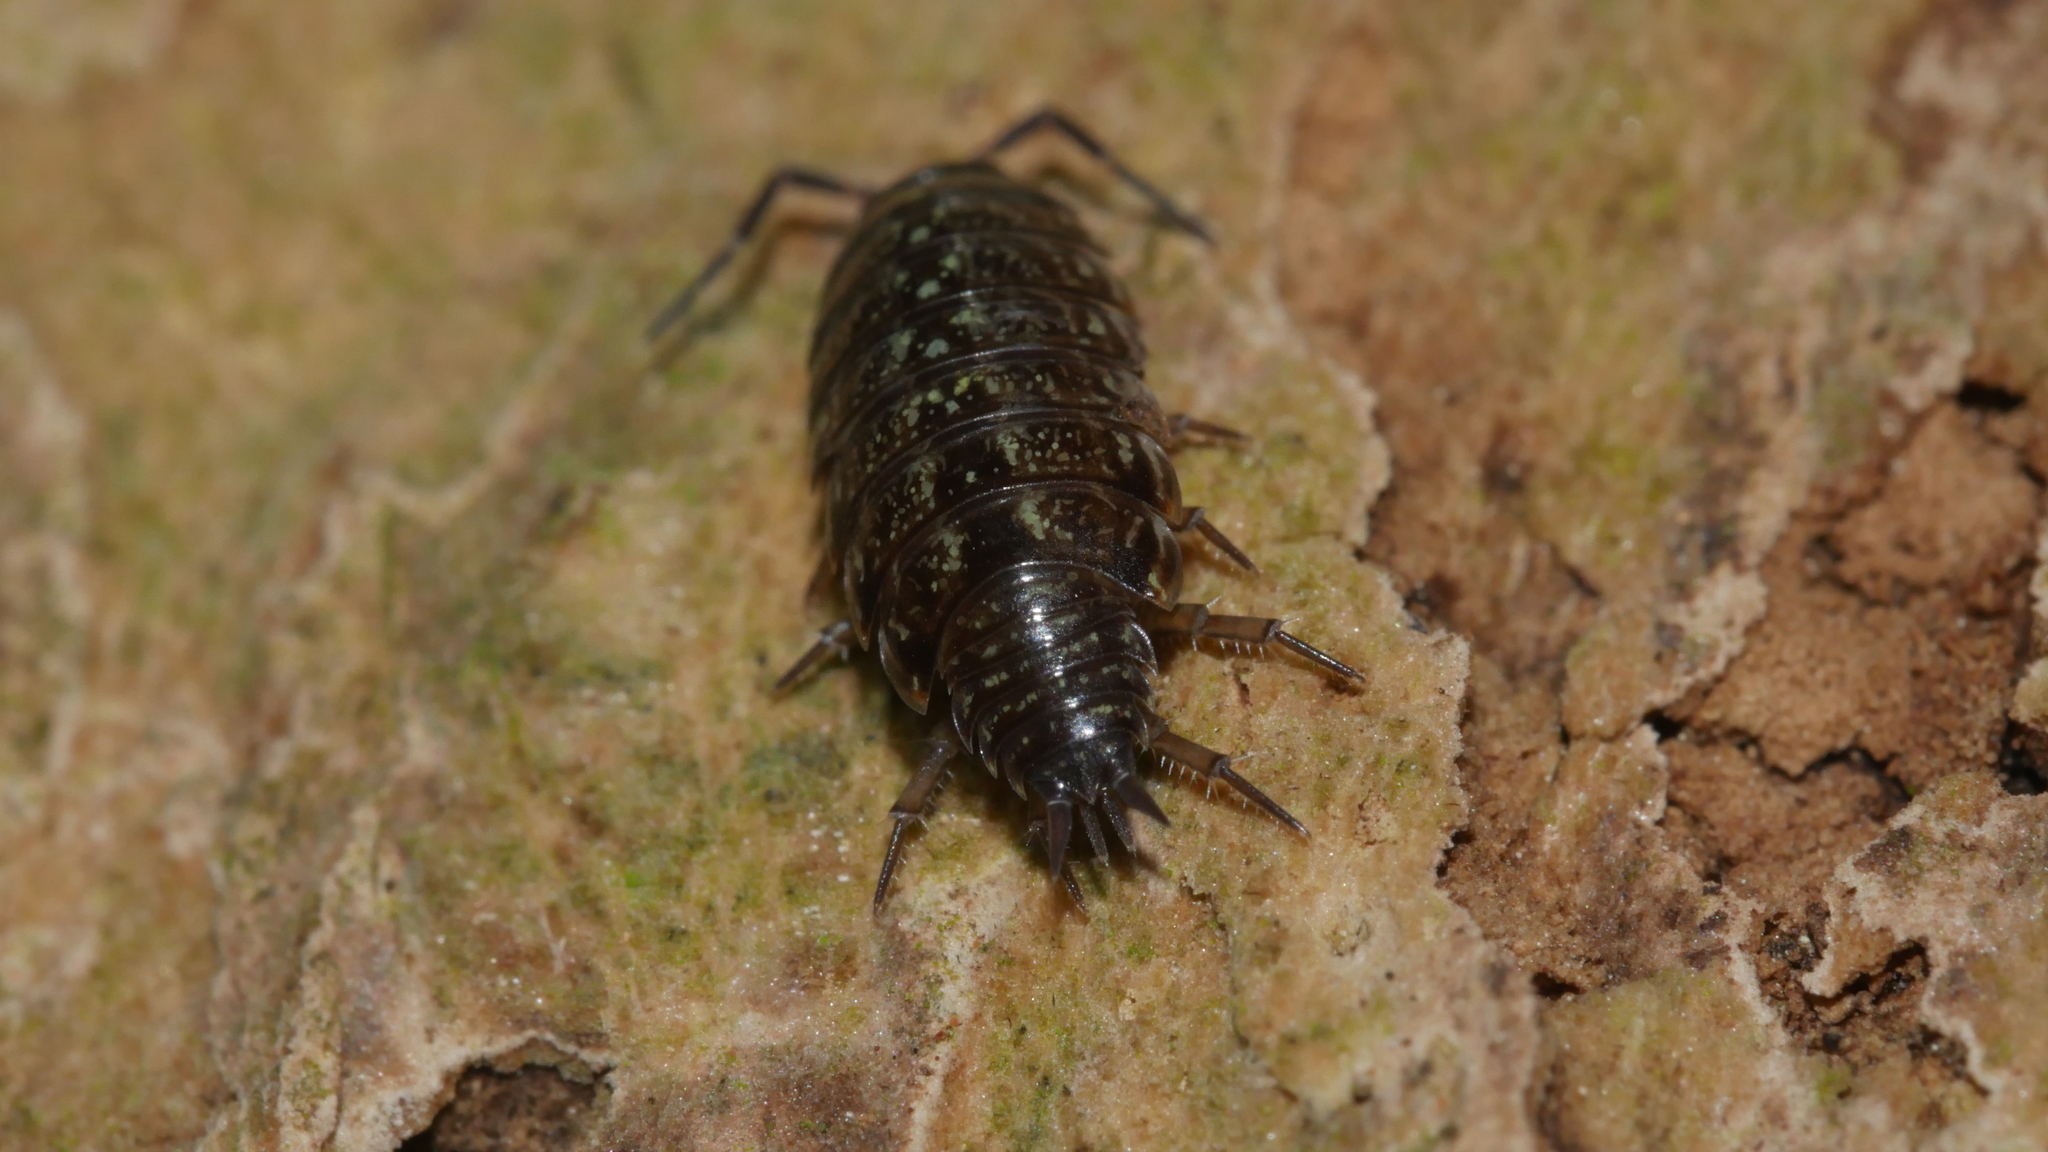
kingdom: Animalia
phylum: Arthropoda
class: Malacostraca
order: Isopoda
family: Philosciidae
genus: Philoscia
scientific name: Philoscia muscorum
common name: Common striped woodlouse
